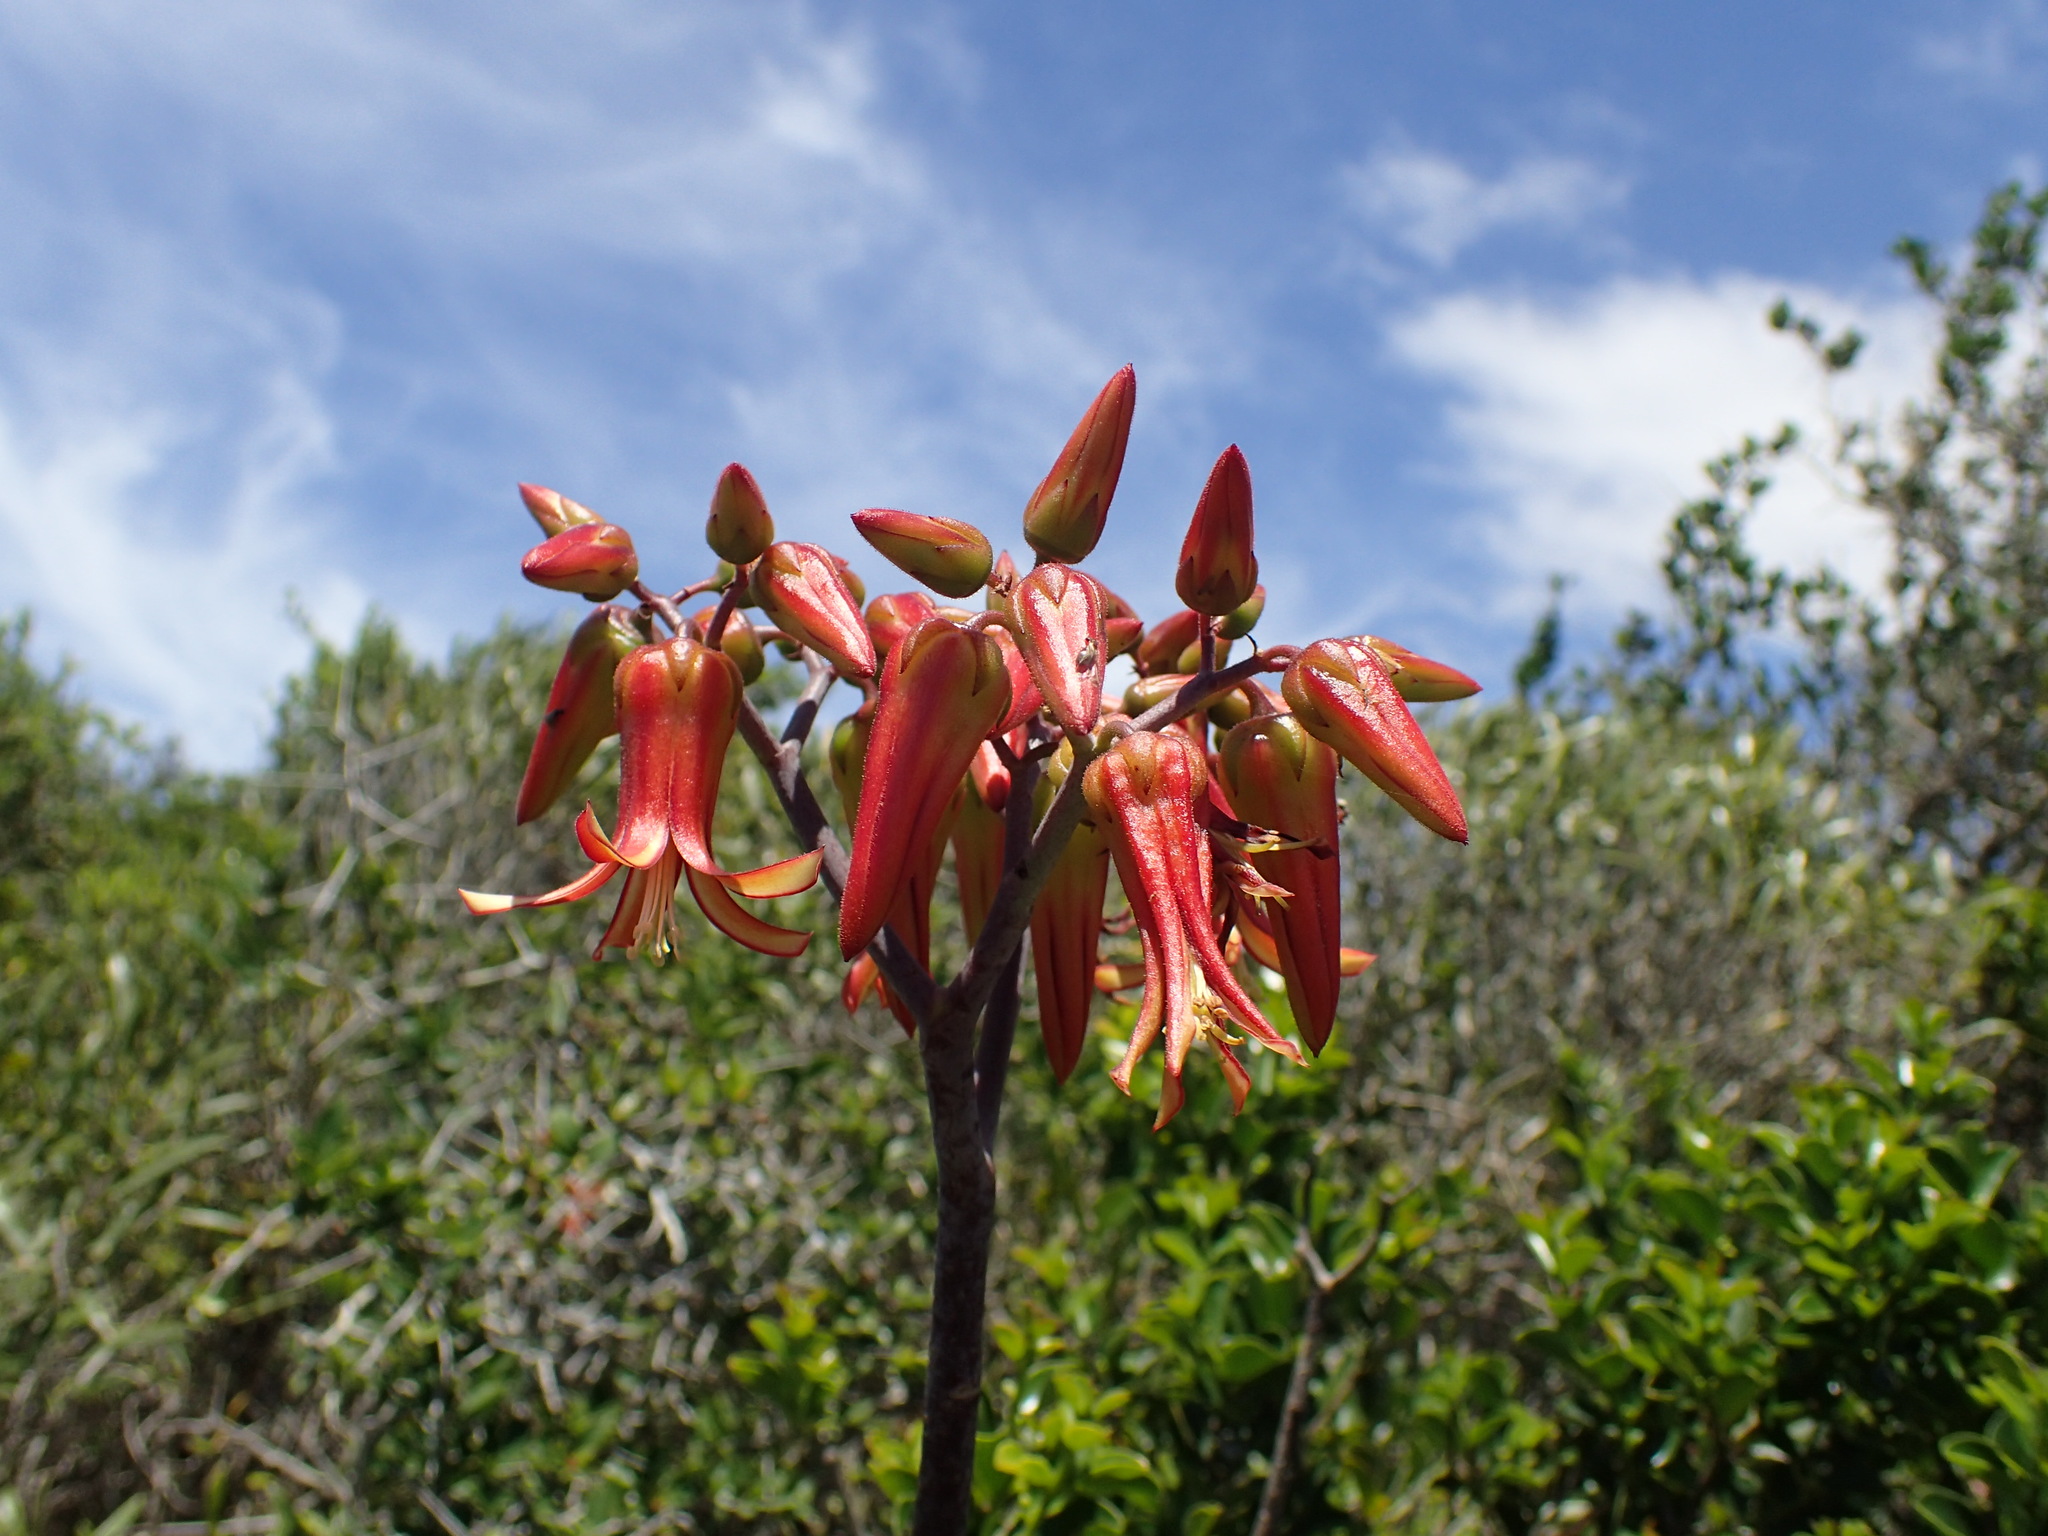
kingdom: Plantae
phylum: Tracheophyta
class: Magnoliopsida
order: Saxifragales
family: Crassulaceae
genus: Cotyledon
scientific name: Cotyledon velutina
